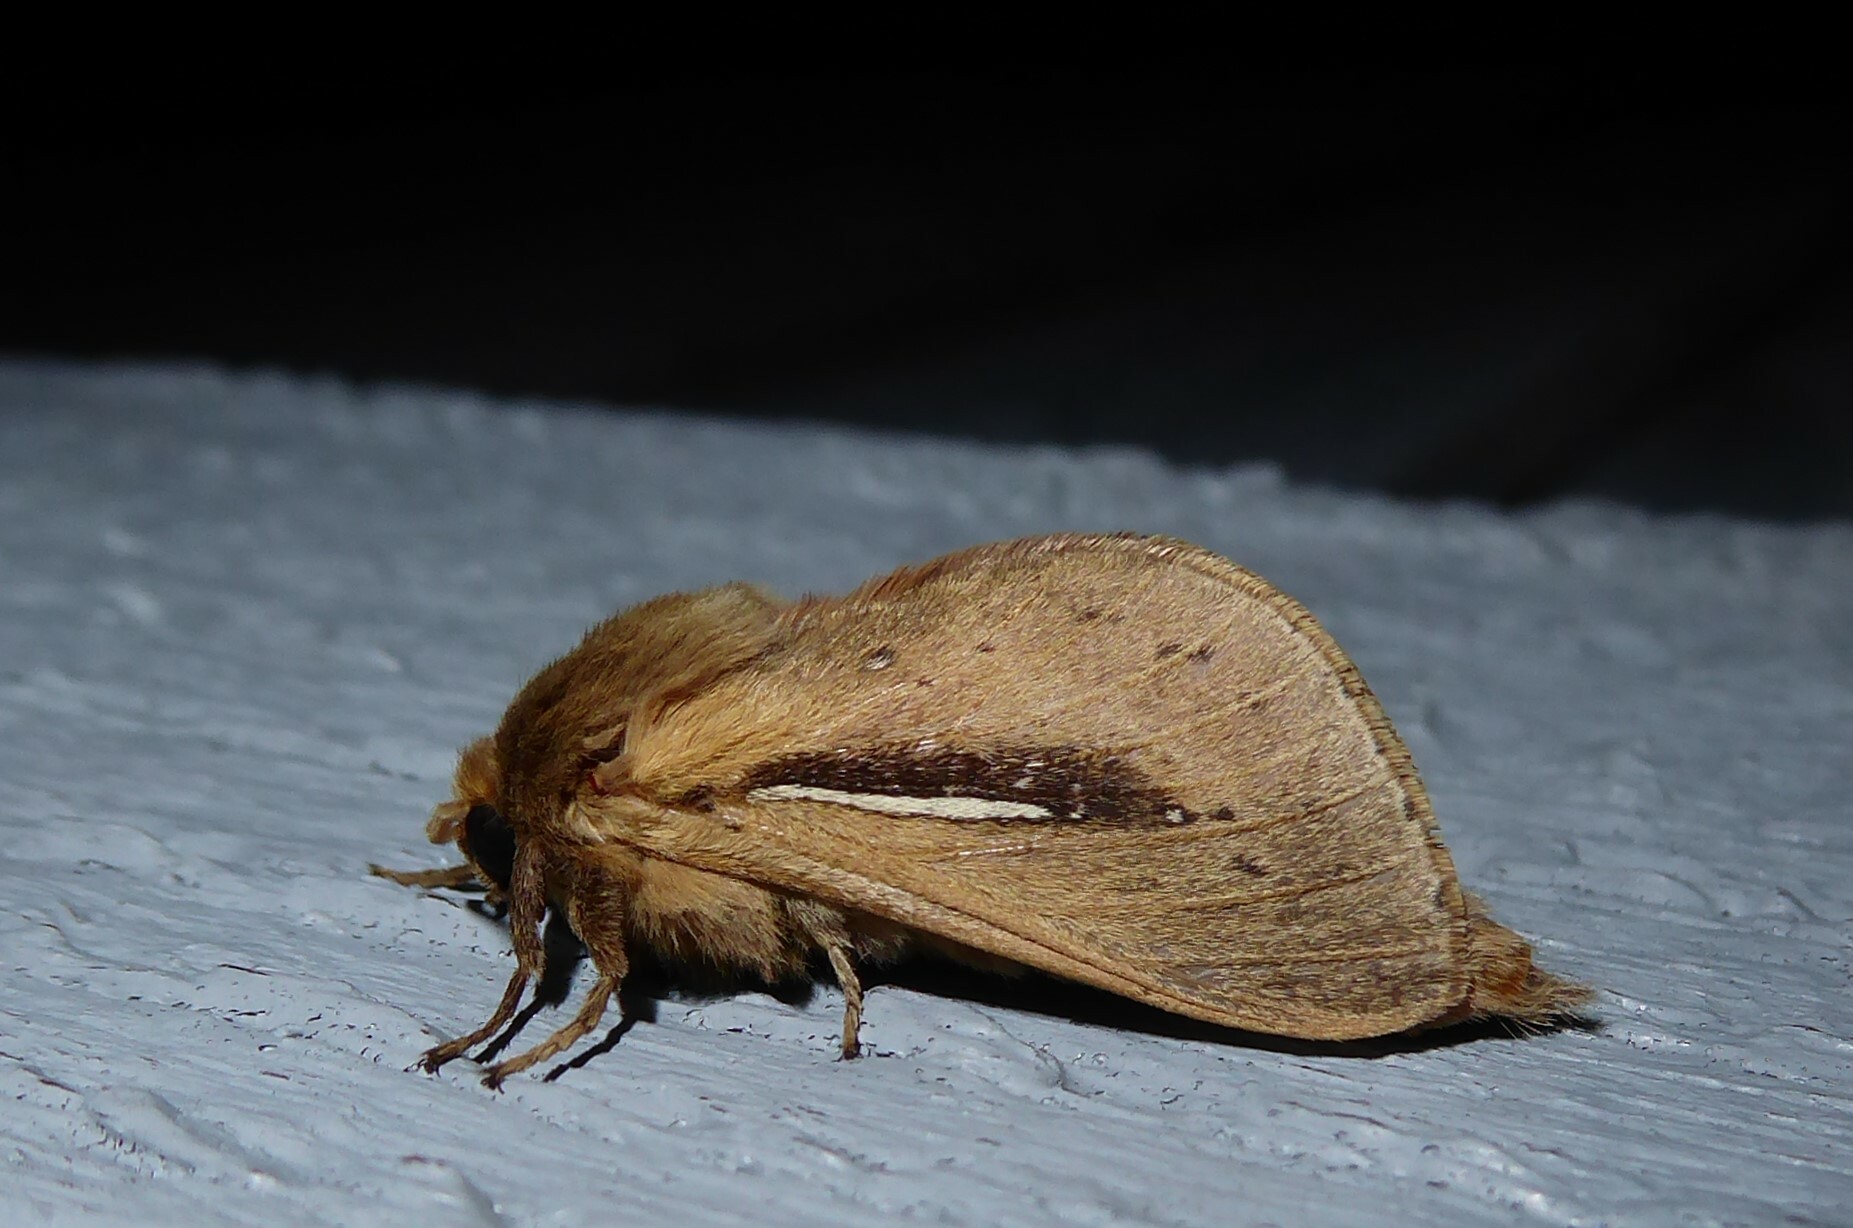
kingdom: Animalia
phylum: Arthropoda
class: Insecta
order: Lepidoptera
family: Hepialidae
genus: Wiseana
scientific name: Wiseana umbraculatus
